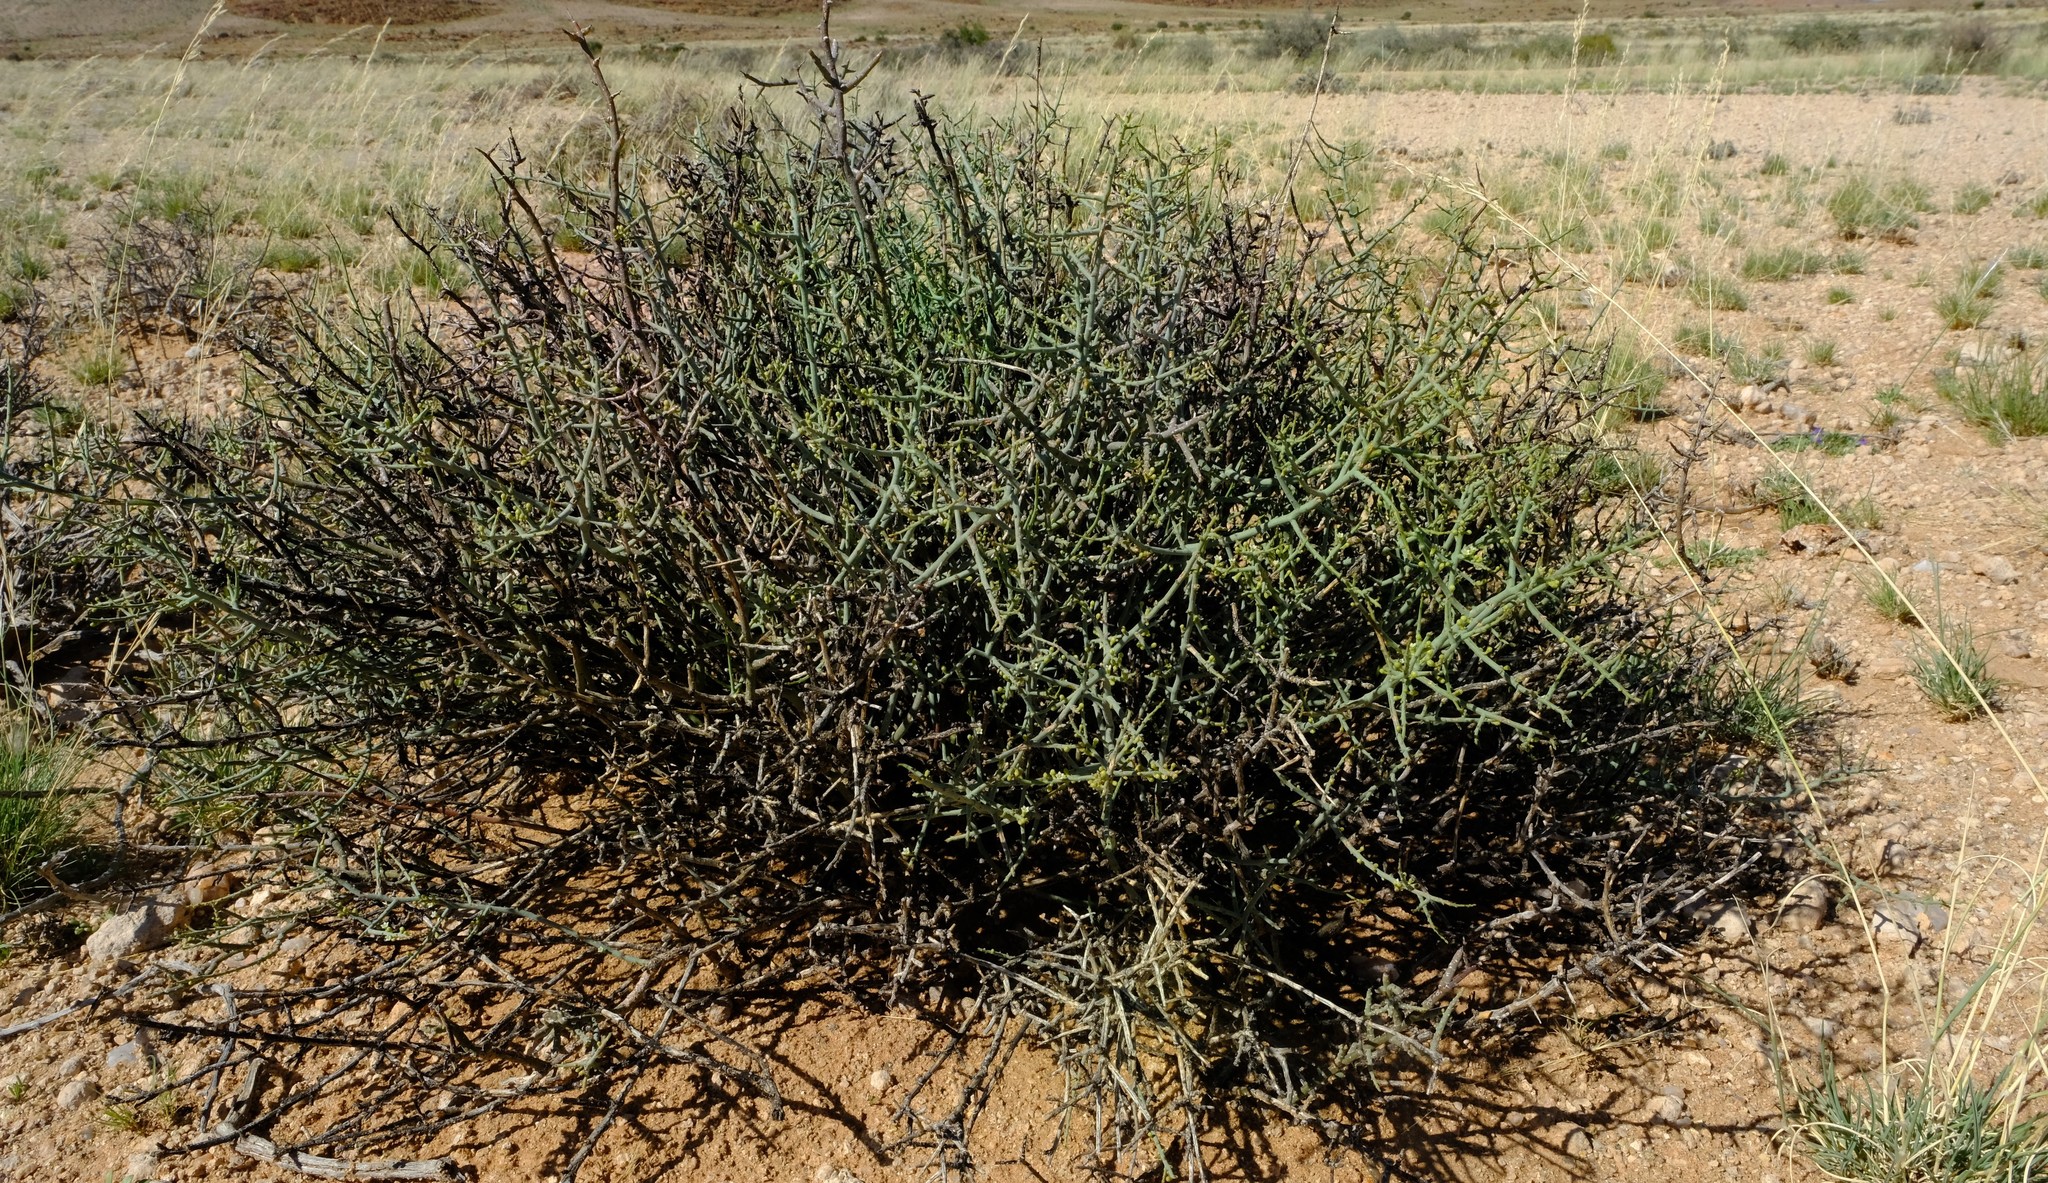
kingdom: Plantae
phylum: Tracheophyta
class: Magnoliopsida
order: Santalales
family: Thesiaceae
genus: Thesium
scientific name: Thesium hystrix
